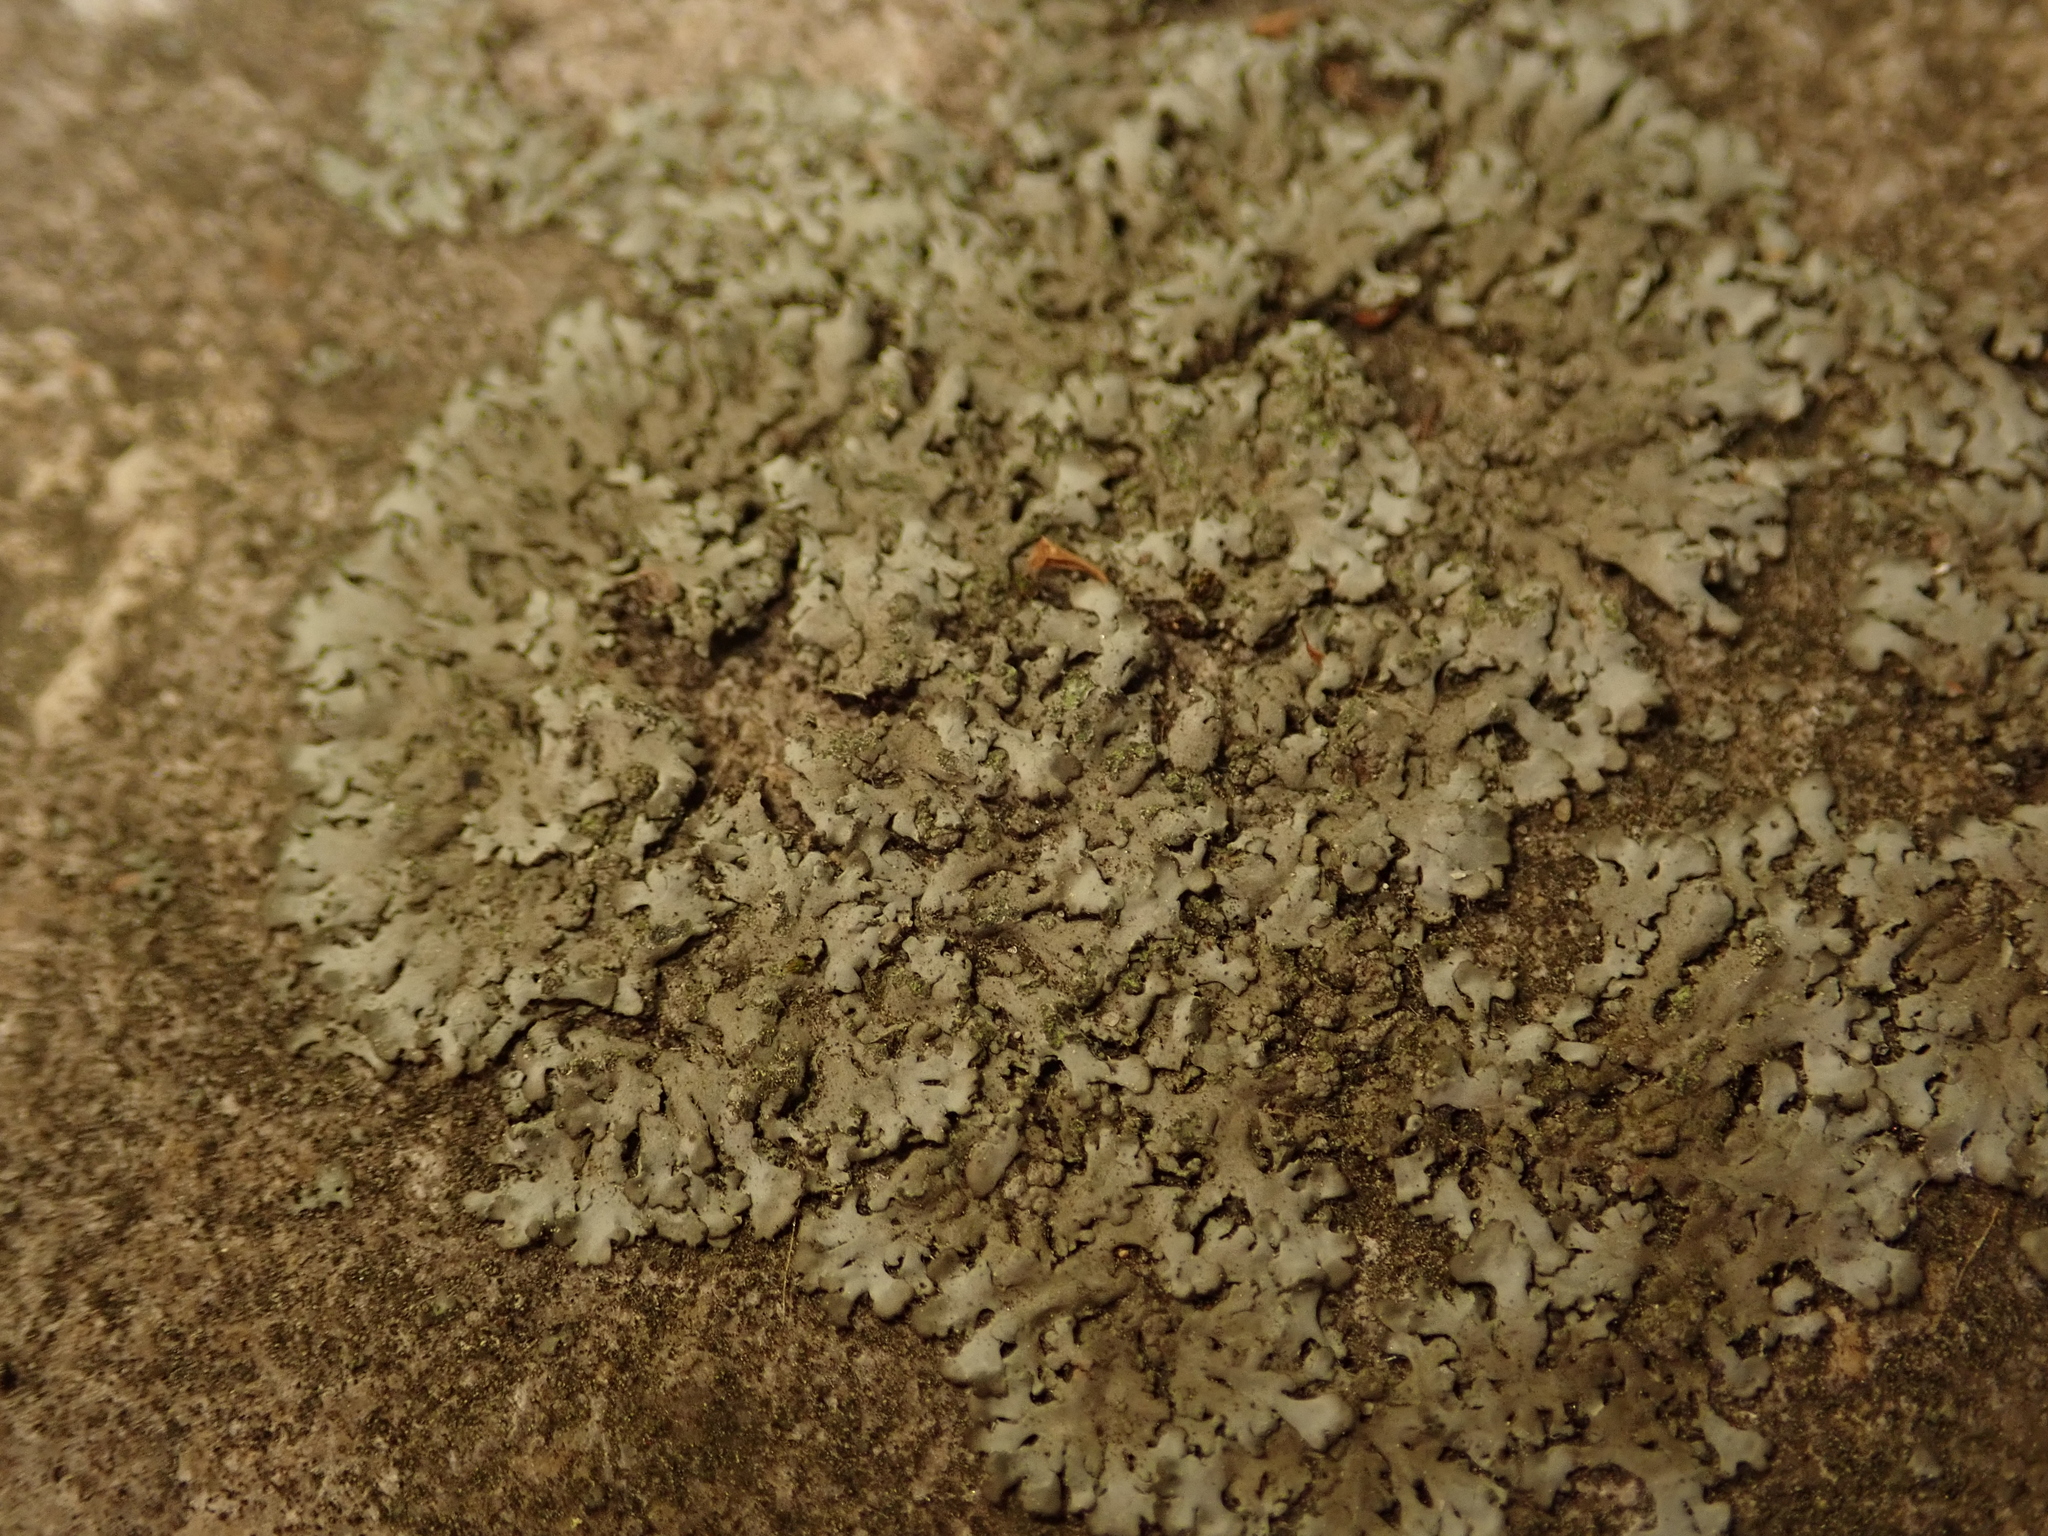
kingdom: Fungi
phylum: Ascomycota
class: Lecanoromycetes
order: Caliciales
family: Physciaceae
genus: Phaeophyscia
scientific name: Phaeophyscia orbicularis
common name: Mealy shadow lichen
